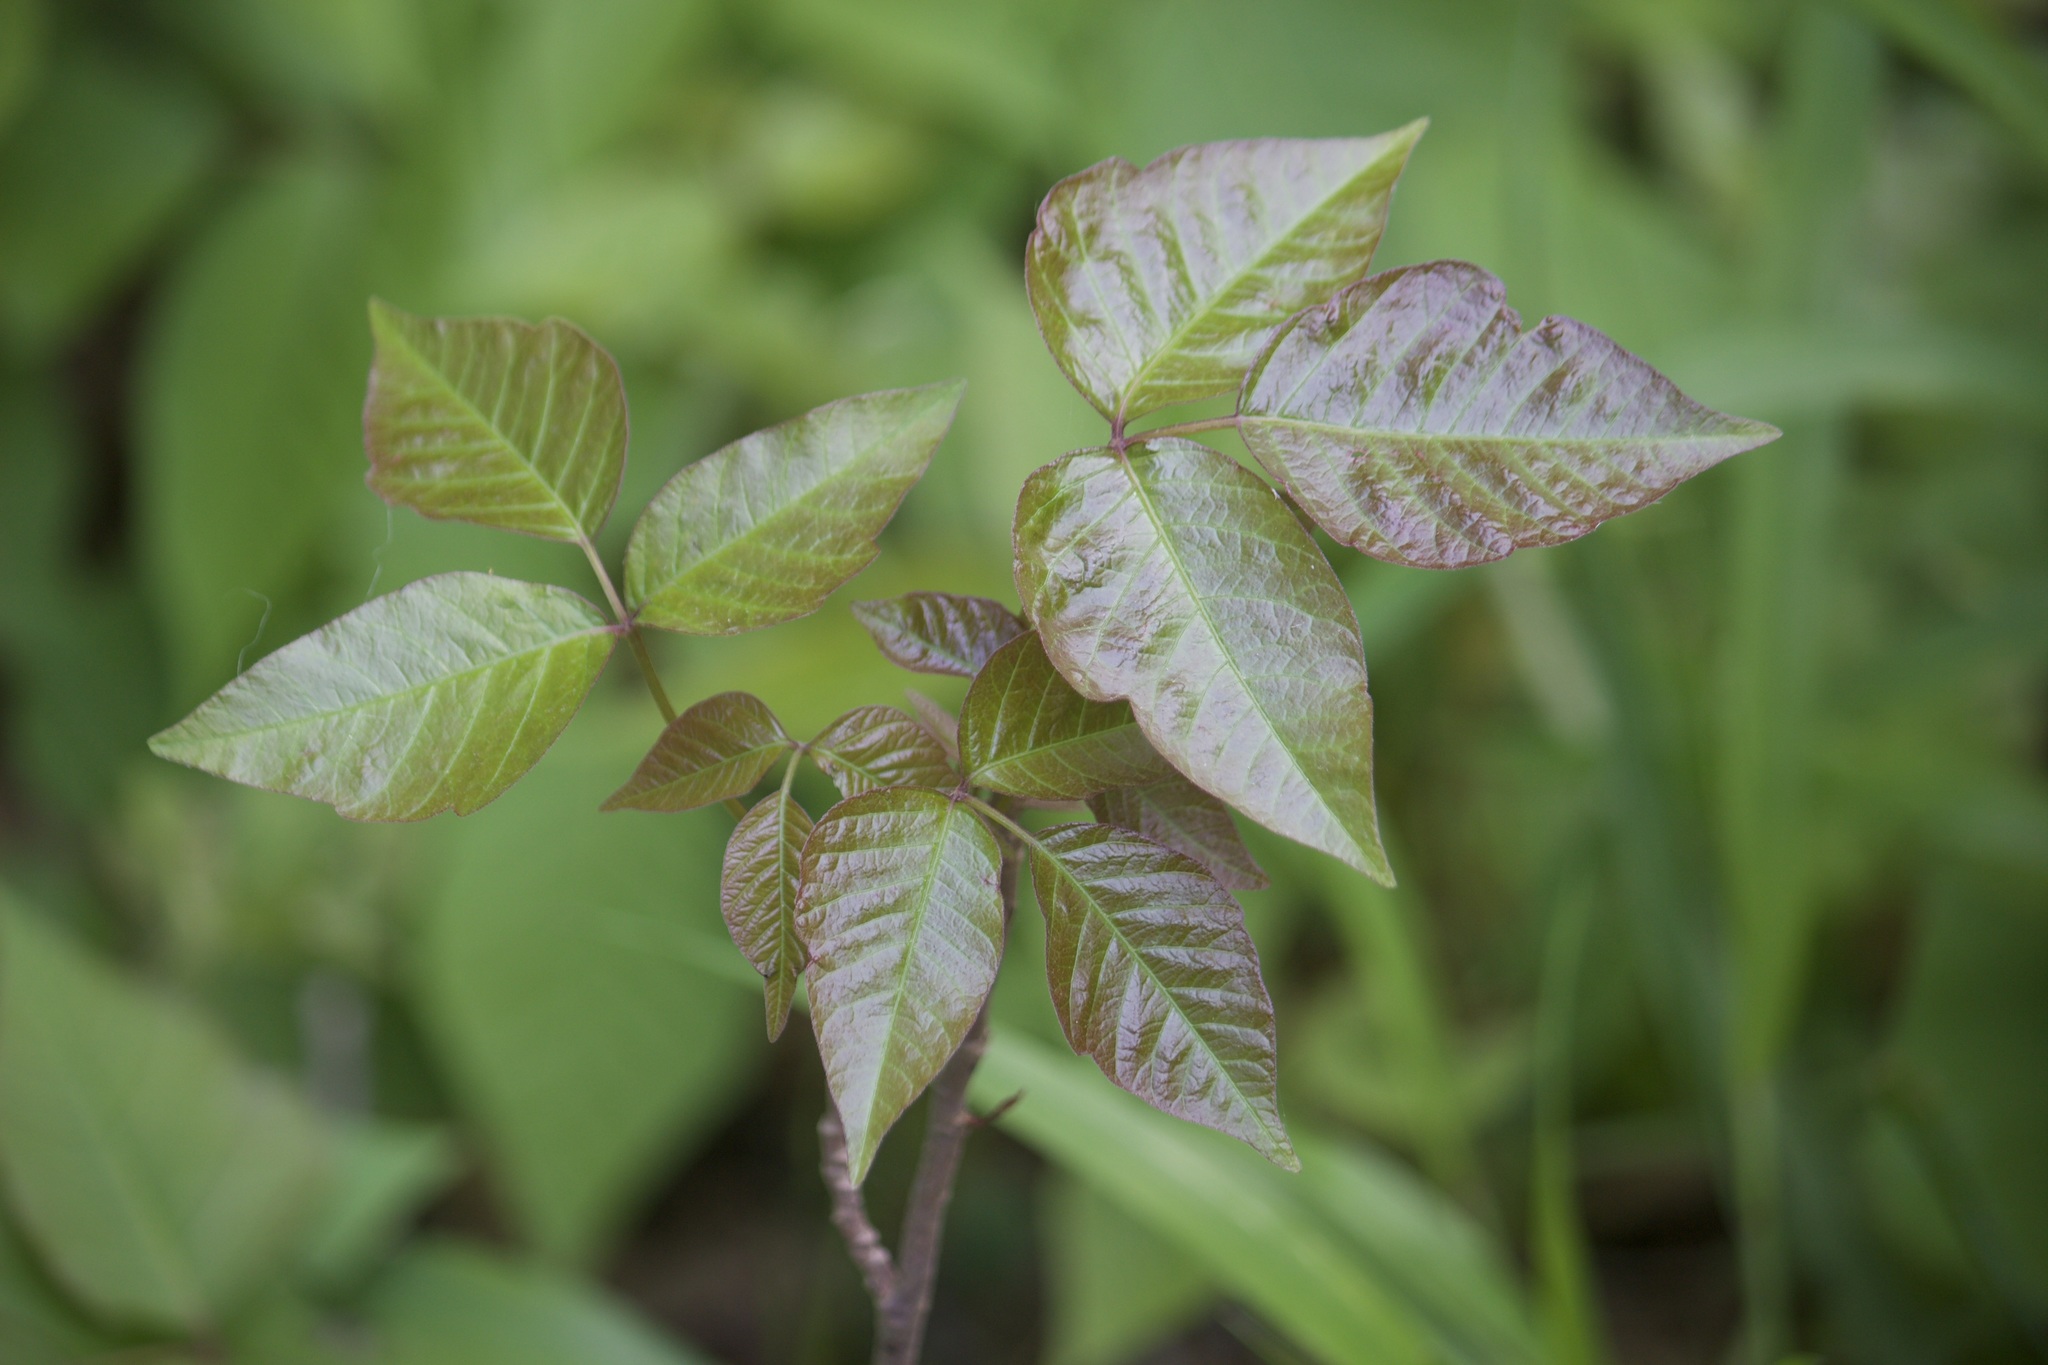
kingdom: Plantae
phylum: Tracheophyta
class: Magnoliopsida
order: Sapindales
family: Anacardiaceae
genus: Toxicodendron
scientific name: Toxicodendron radicans
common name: Poison ivy
